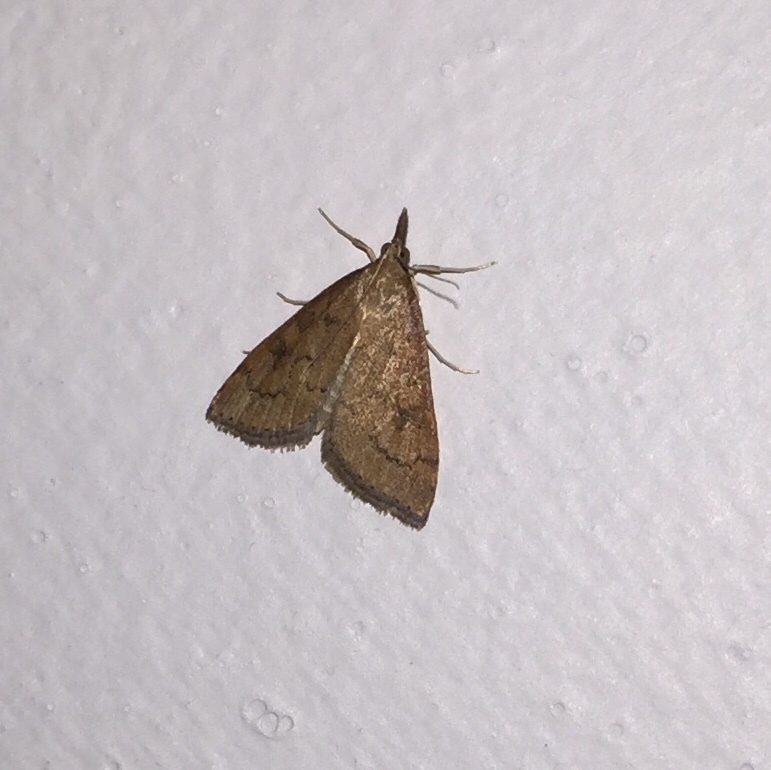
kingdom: Animalia
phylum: Arthropoda
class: Insecta
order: Lepidoptera
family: Crambidae
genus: Udea
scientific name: Udea rubigalis
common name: Celery leaftier moth
